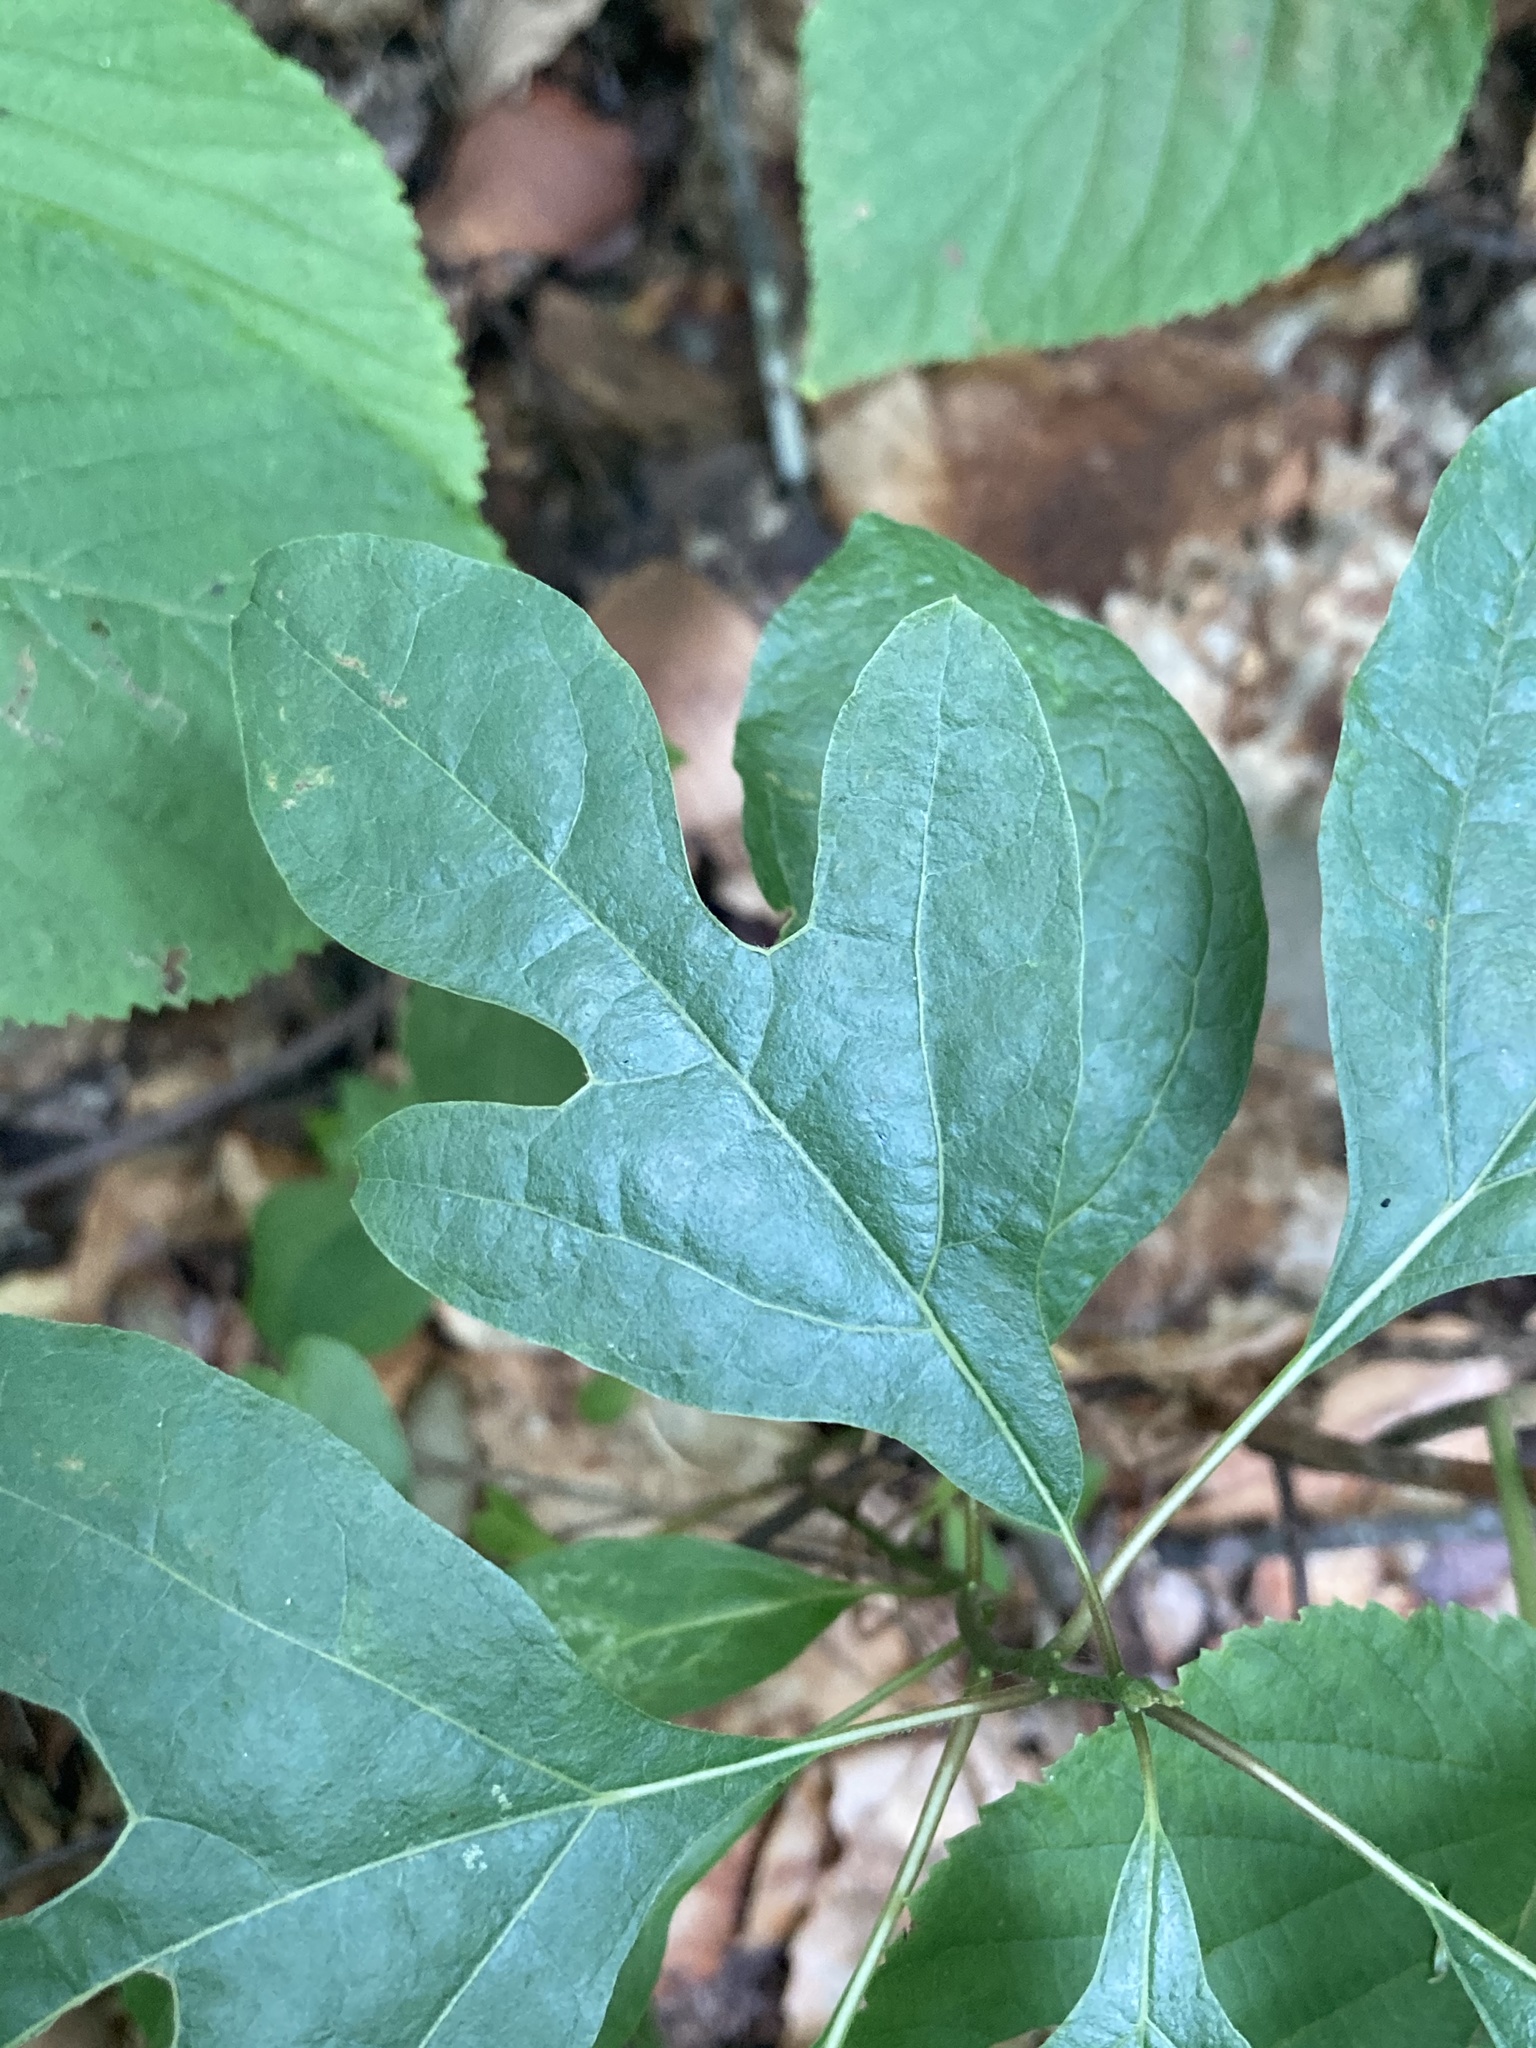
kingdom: Plantae
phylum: Tracheophyta
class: Magnoliopsida
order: Laurales
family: Lauraceae
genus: Sassafras
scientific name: Sassafras albidum
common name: Sassafras
